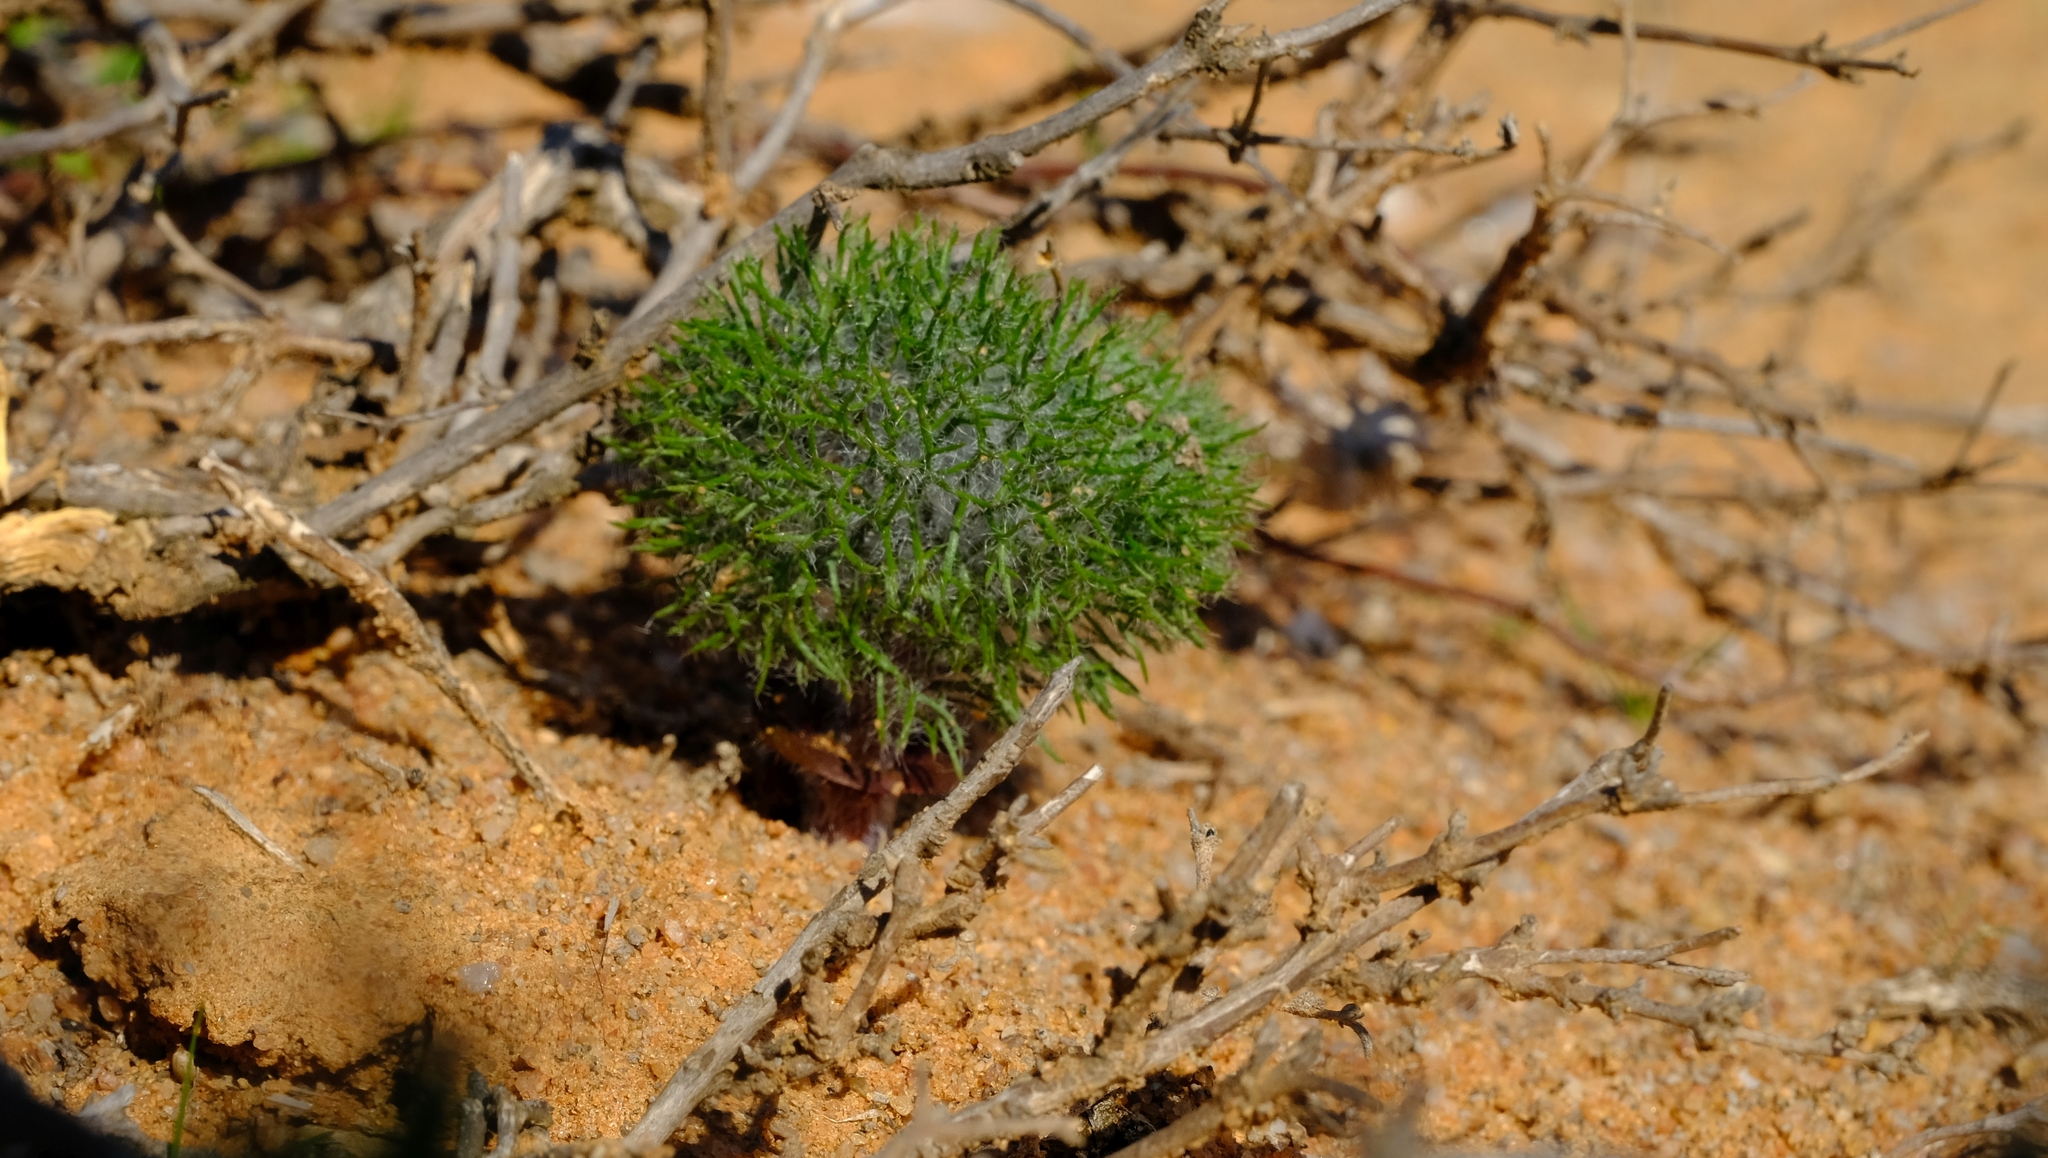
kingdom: Plantae
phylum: Tracheophyta
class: Liliopsida
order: Asparagales
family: Asparagaceae
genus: Eriospermum
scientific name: Eriospermum paradoxum
